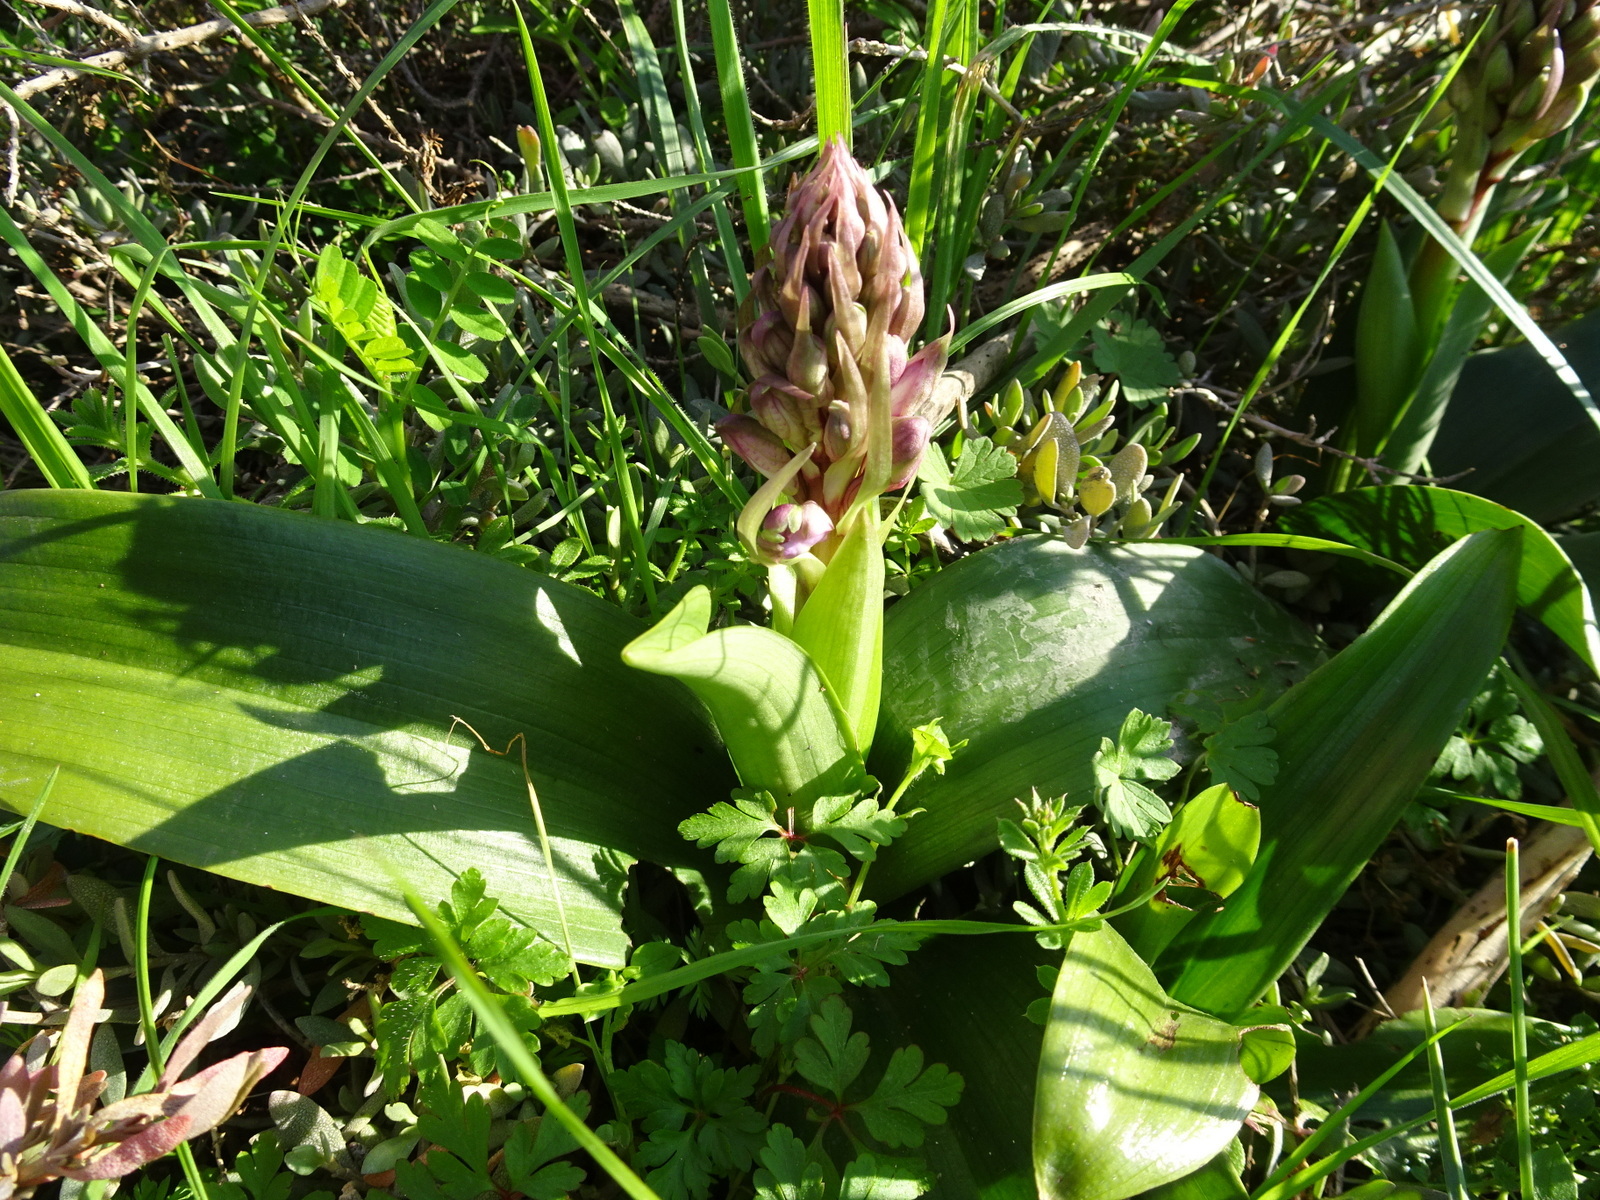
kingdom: Plantae
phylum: Tracheophyta
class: Liliopsida
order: Asparagales
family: Orchidaceae
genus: Himantoglossum
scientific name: Himantoglossum robertianum
